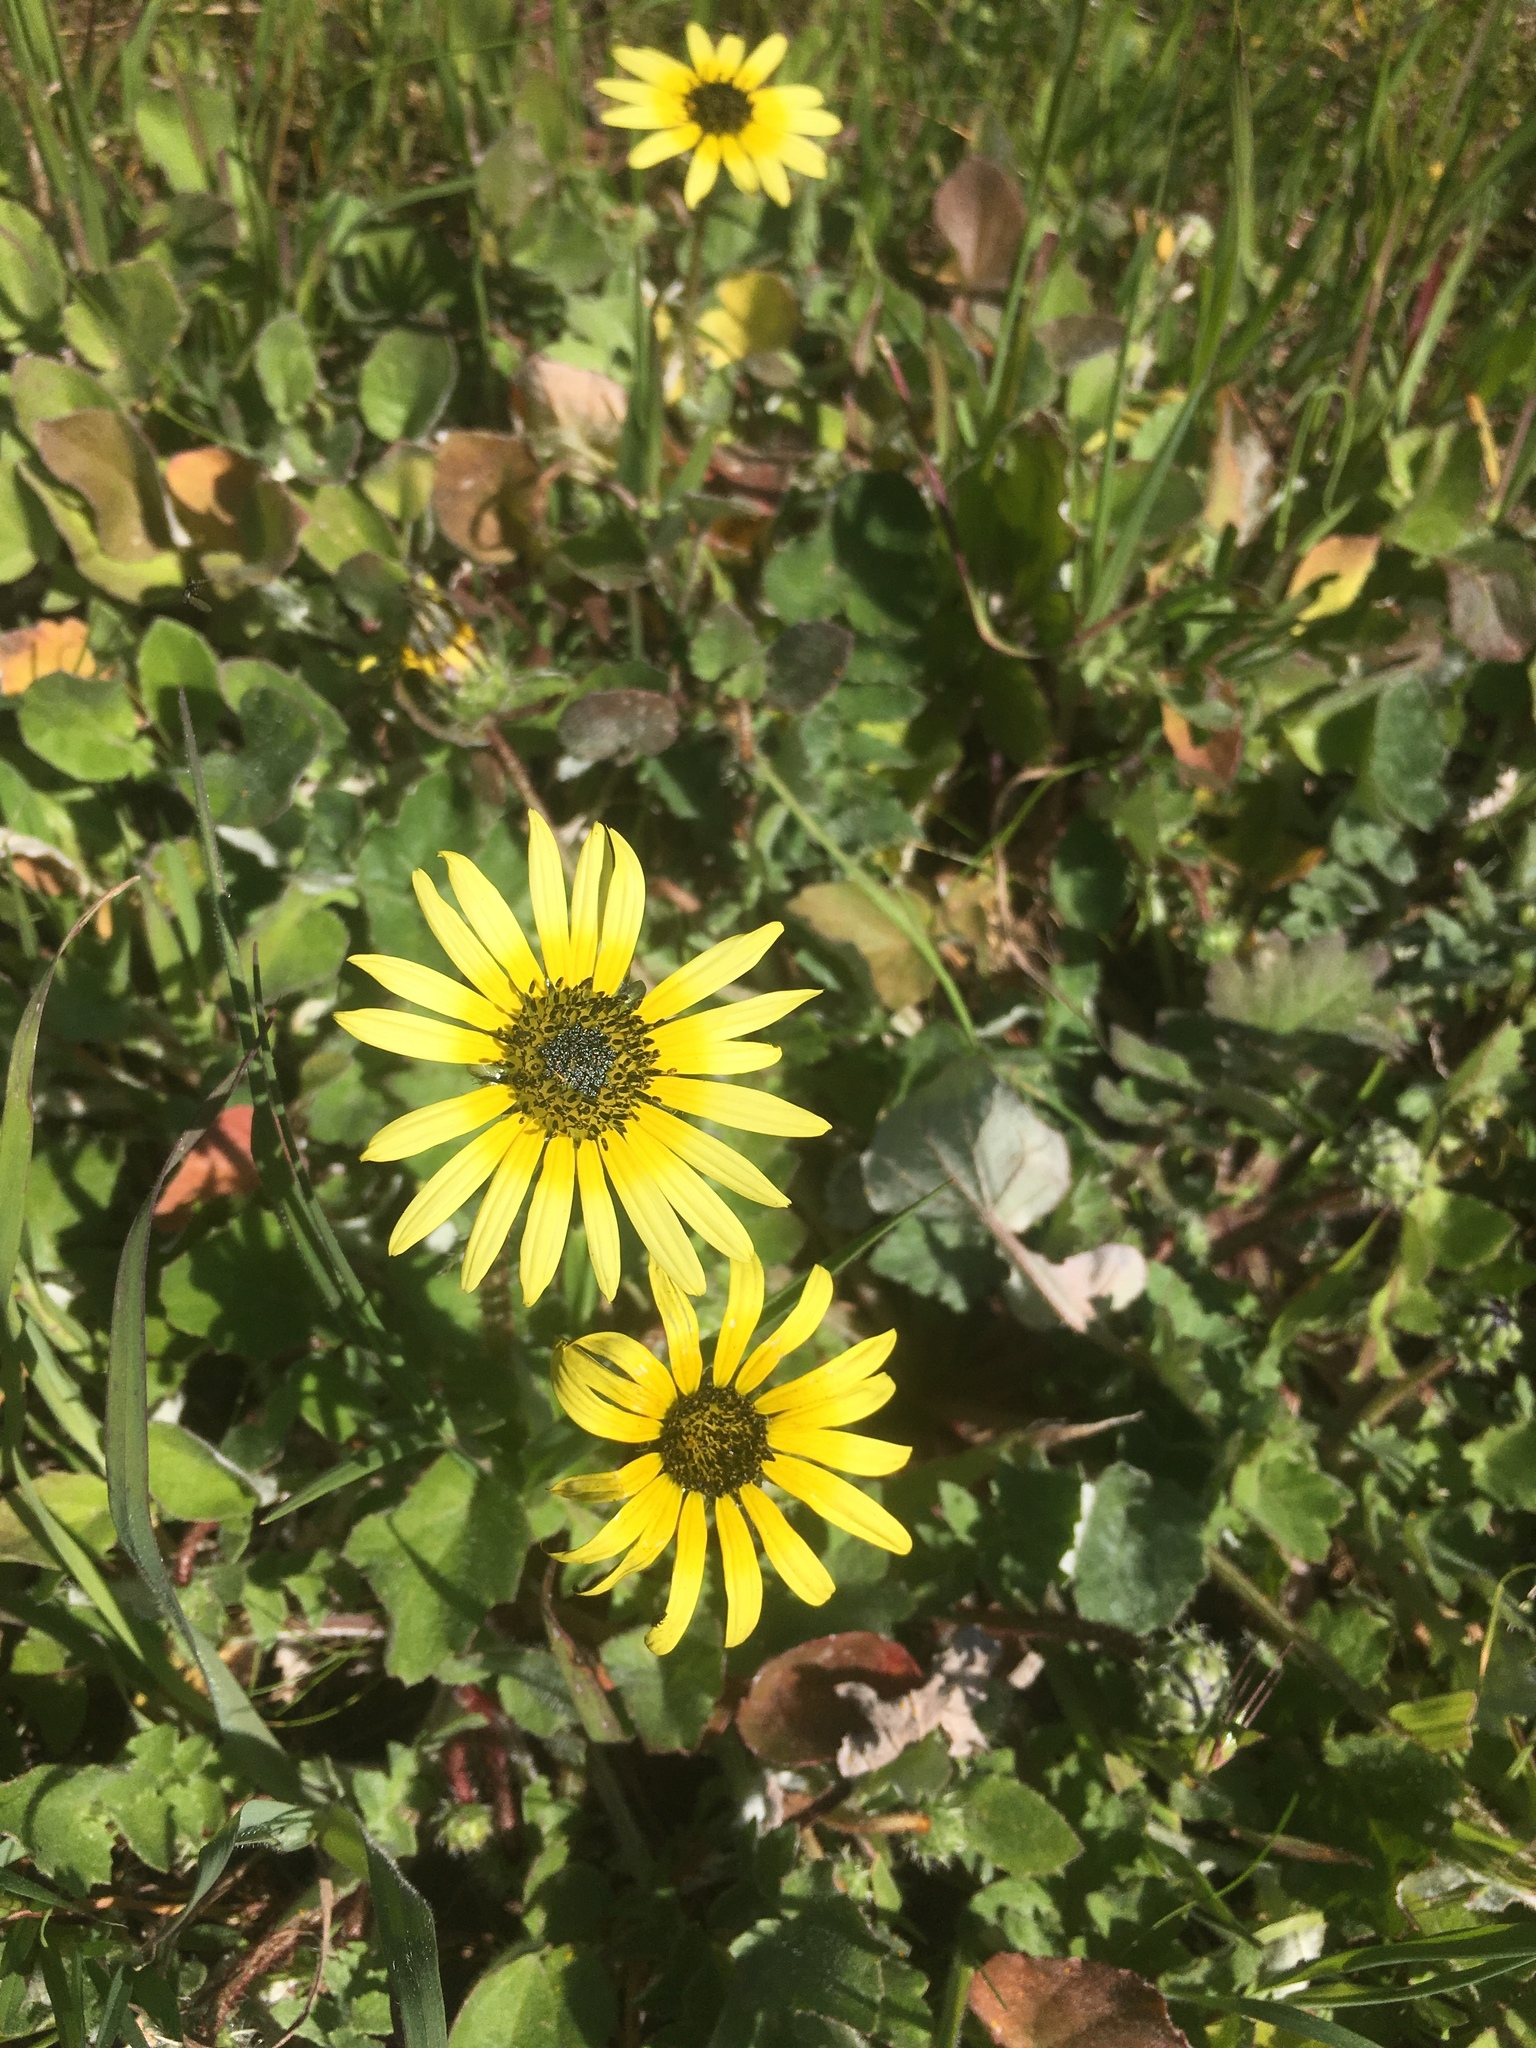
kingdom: Plantae
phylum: Tracheophyta
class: Magnoliopsida
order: Asterales
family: Asteraceae
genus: Arctotheca
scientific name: Arctotheca calendula
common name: Capeweed
